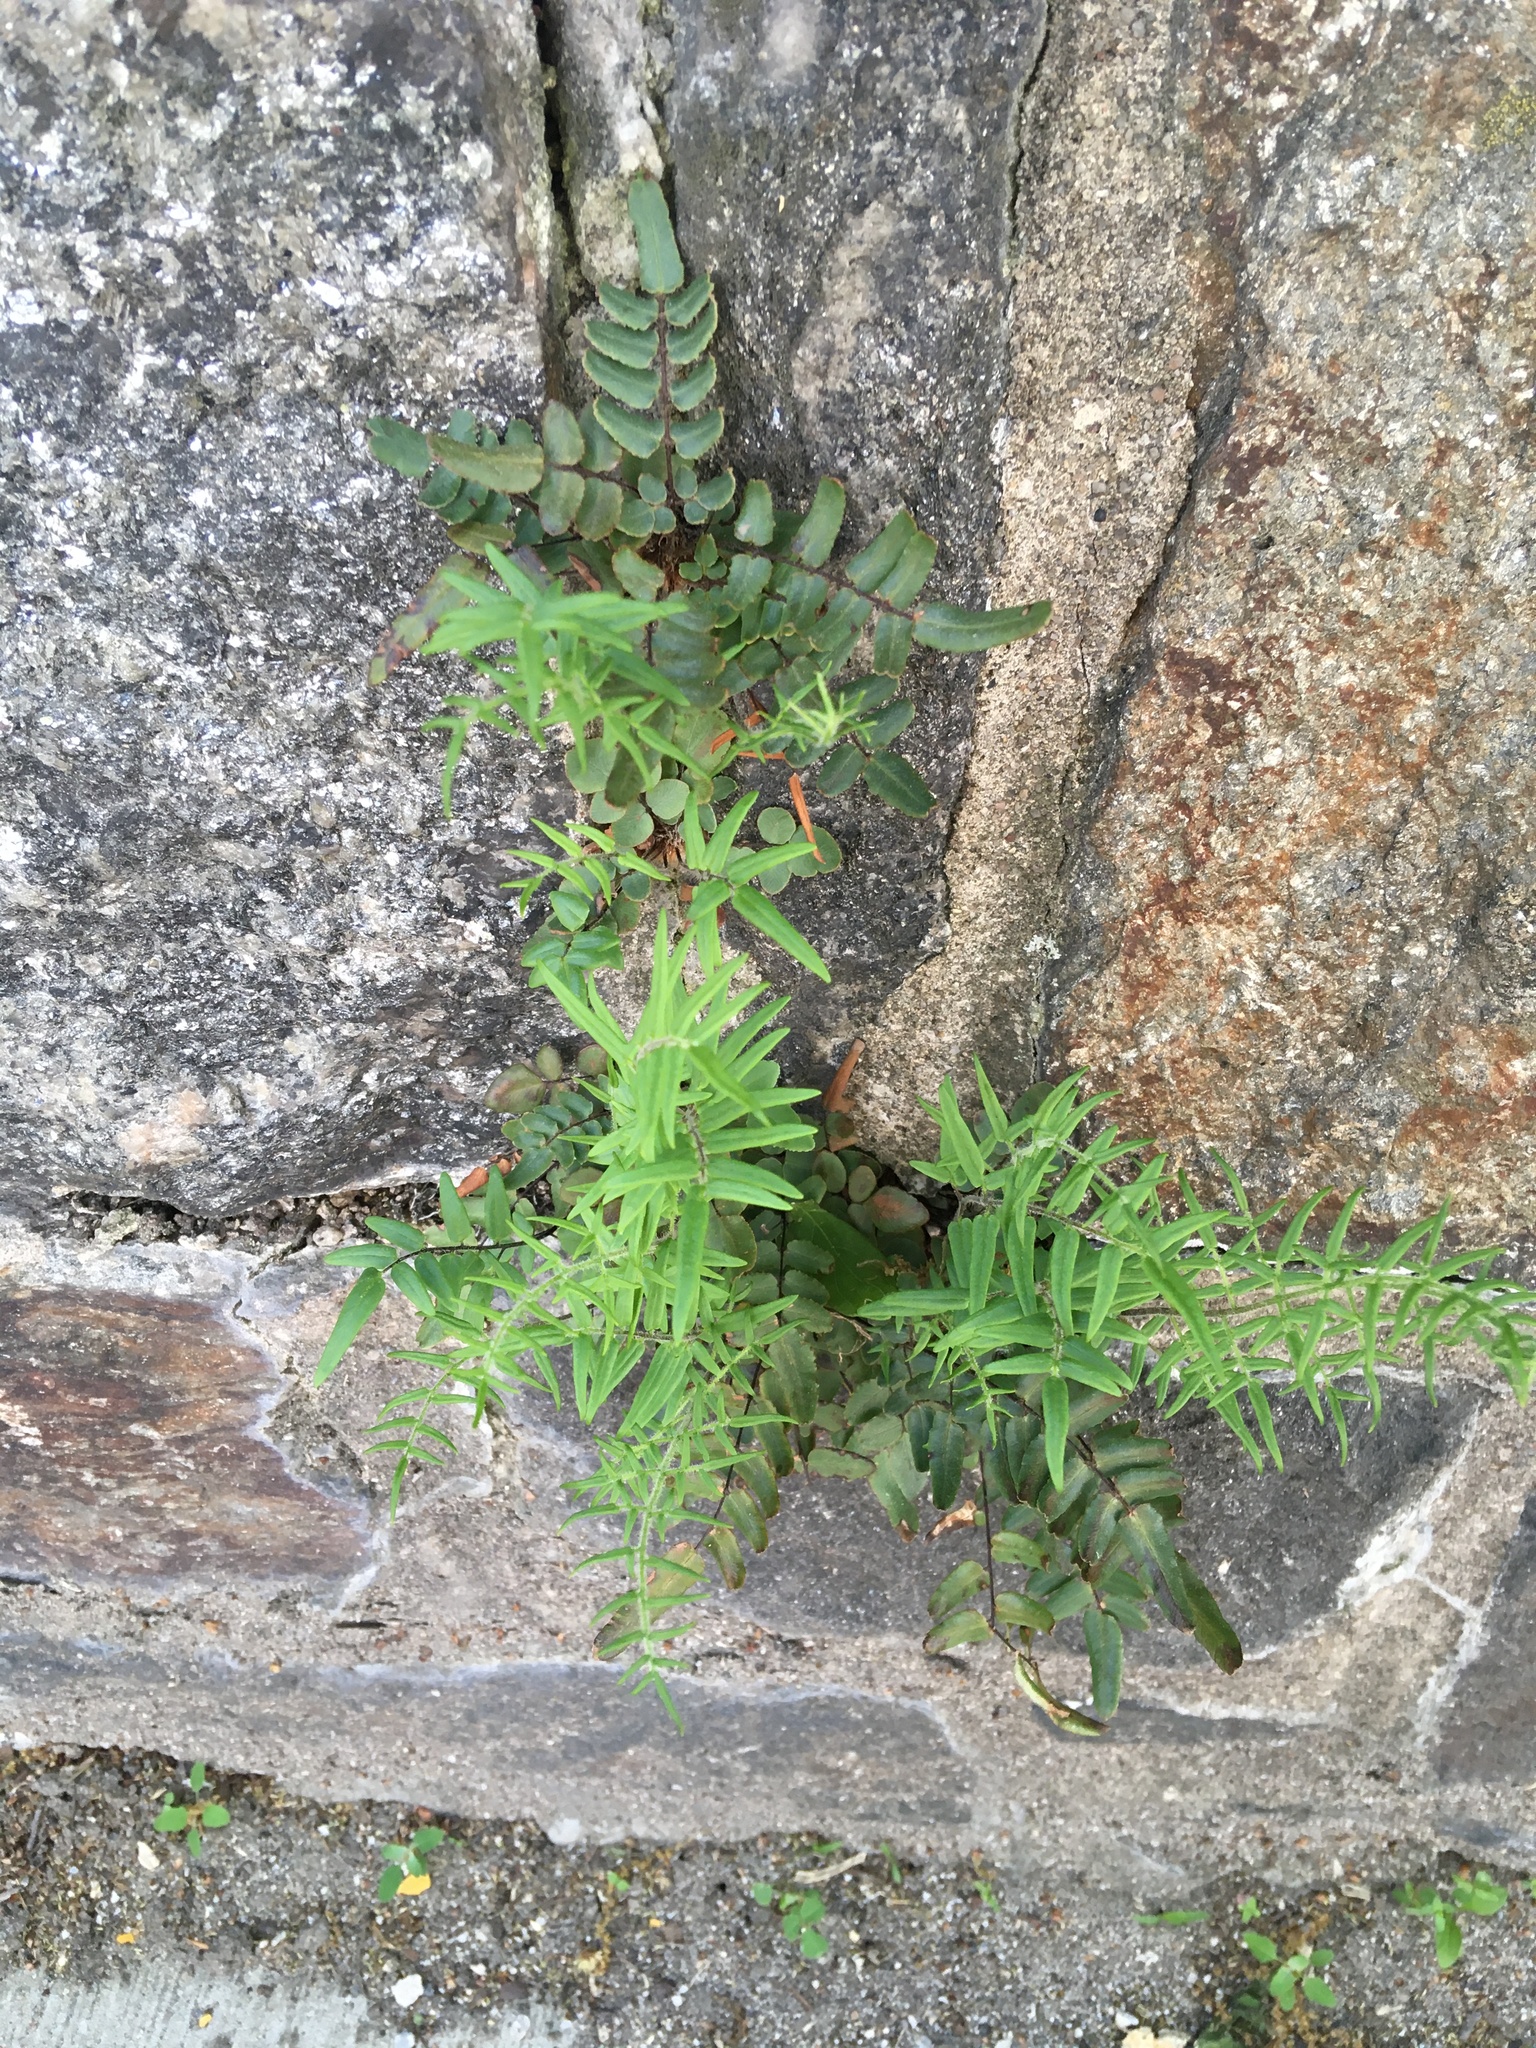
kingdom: Plantae
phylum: Tracheophyta
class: Polypodiopsida
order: Polypodiales
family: Pteridaceae
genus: Pellaea
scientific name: Pellaea atropurpurea
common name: Hairy cliffbrake
